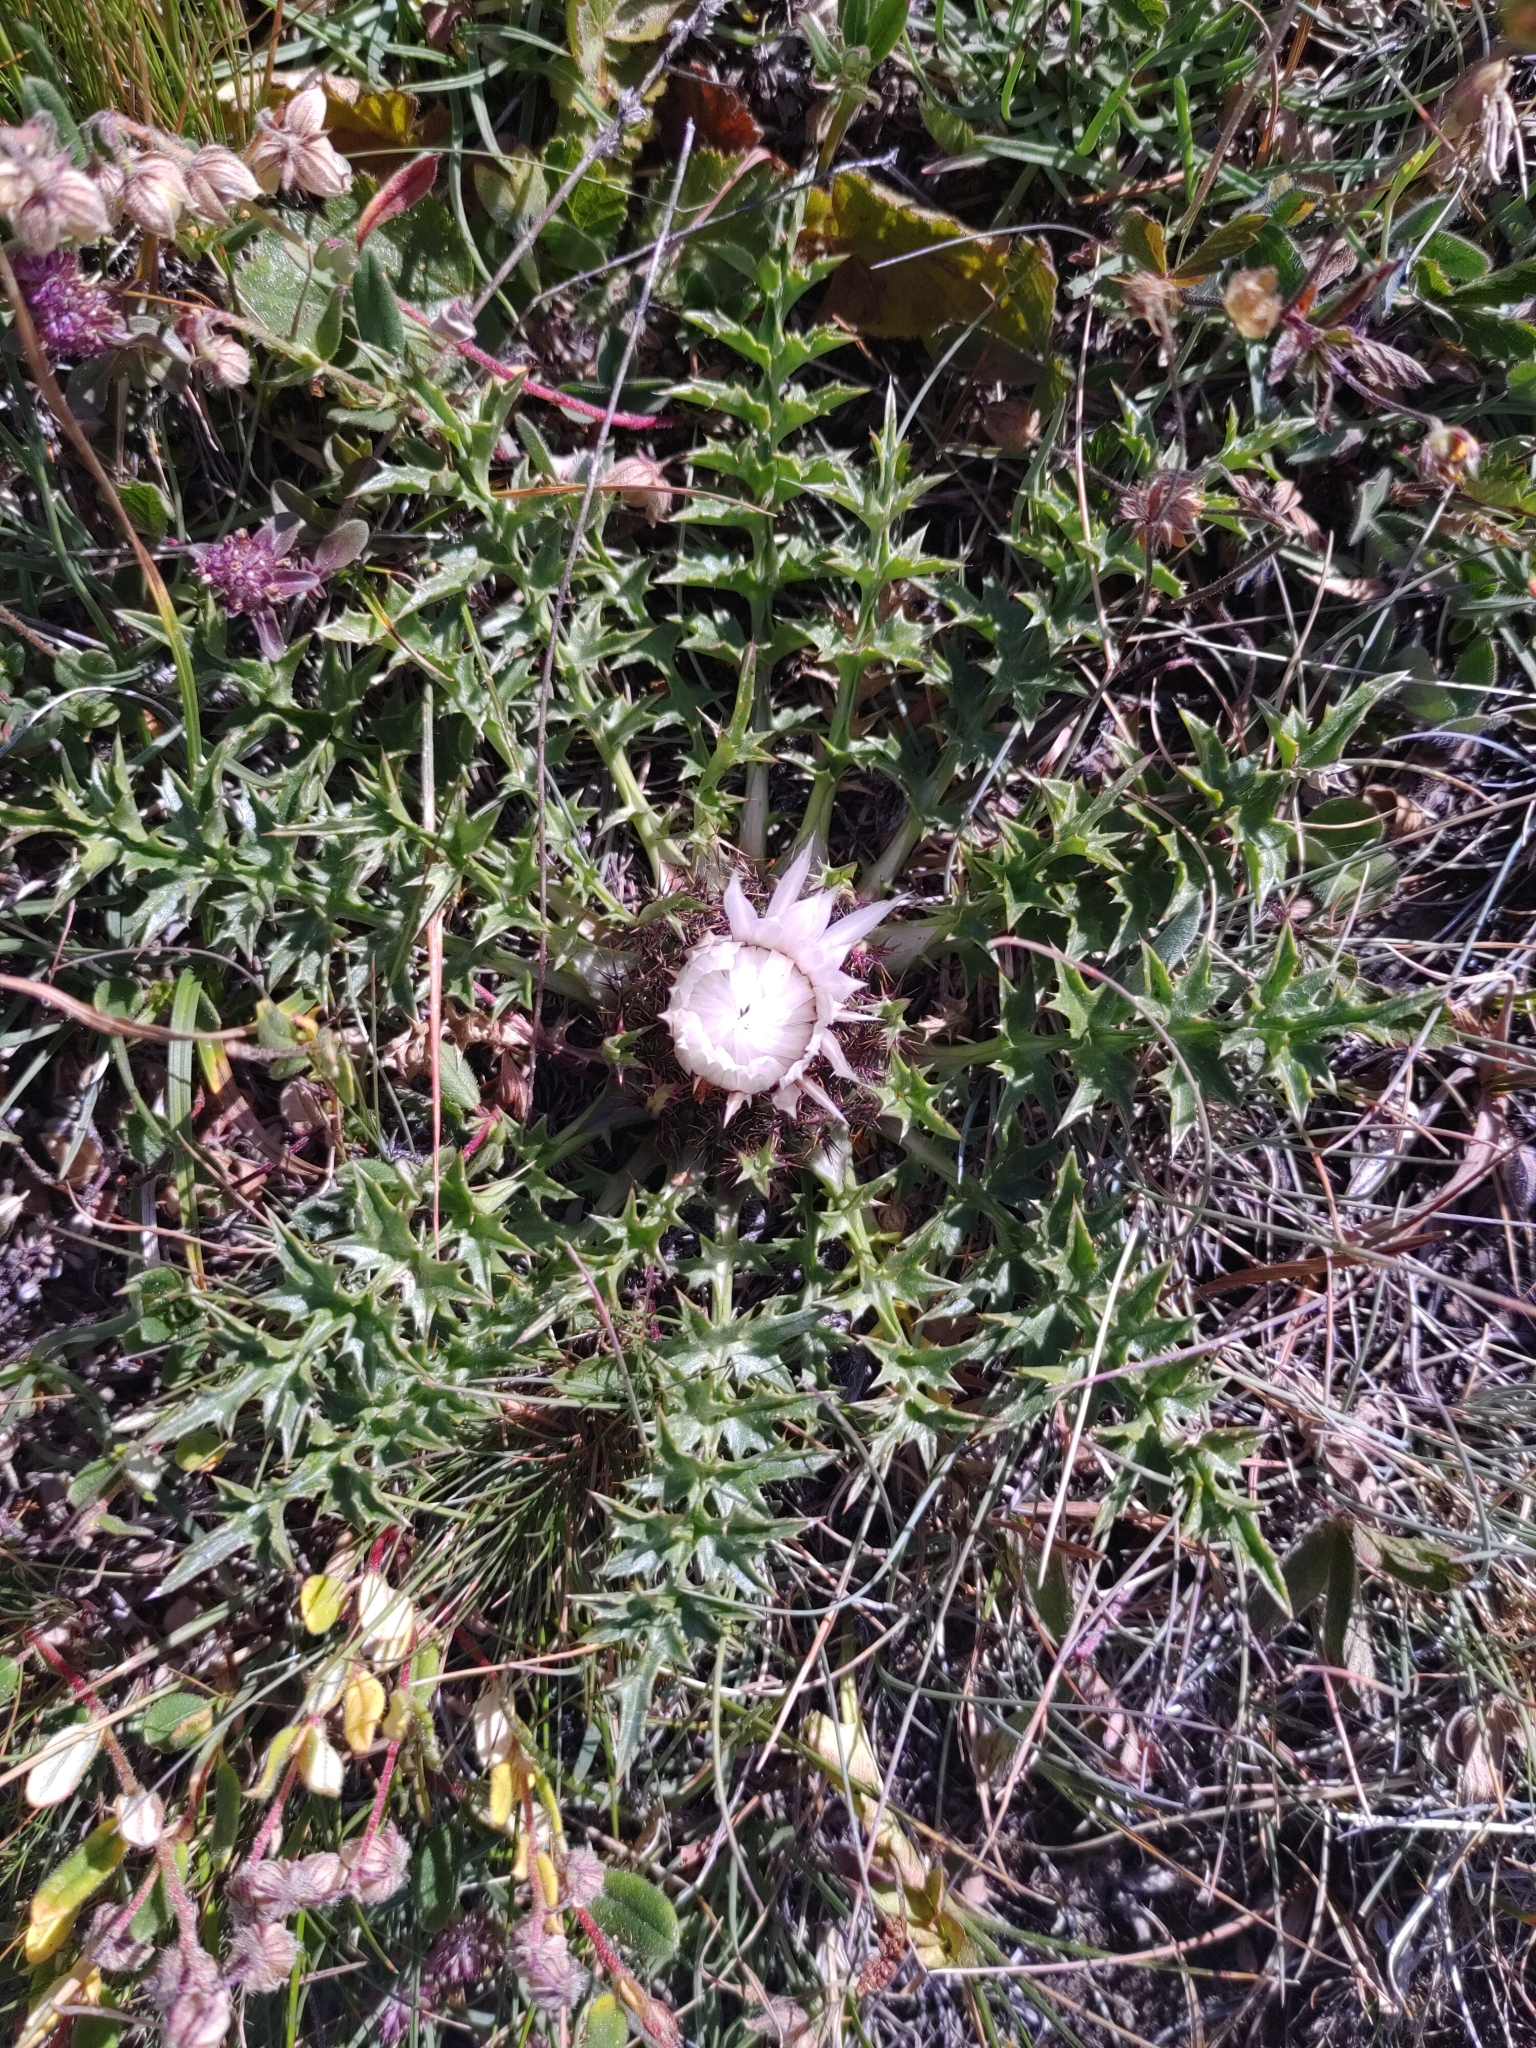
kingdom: Plantae
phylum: Tracheophyta
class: Magnoliopsida
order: Asterales
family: Asteraceae
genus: Carlina
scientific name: Carlina acaulis
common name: Stemless carline thistle
